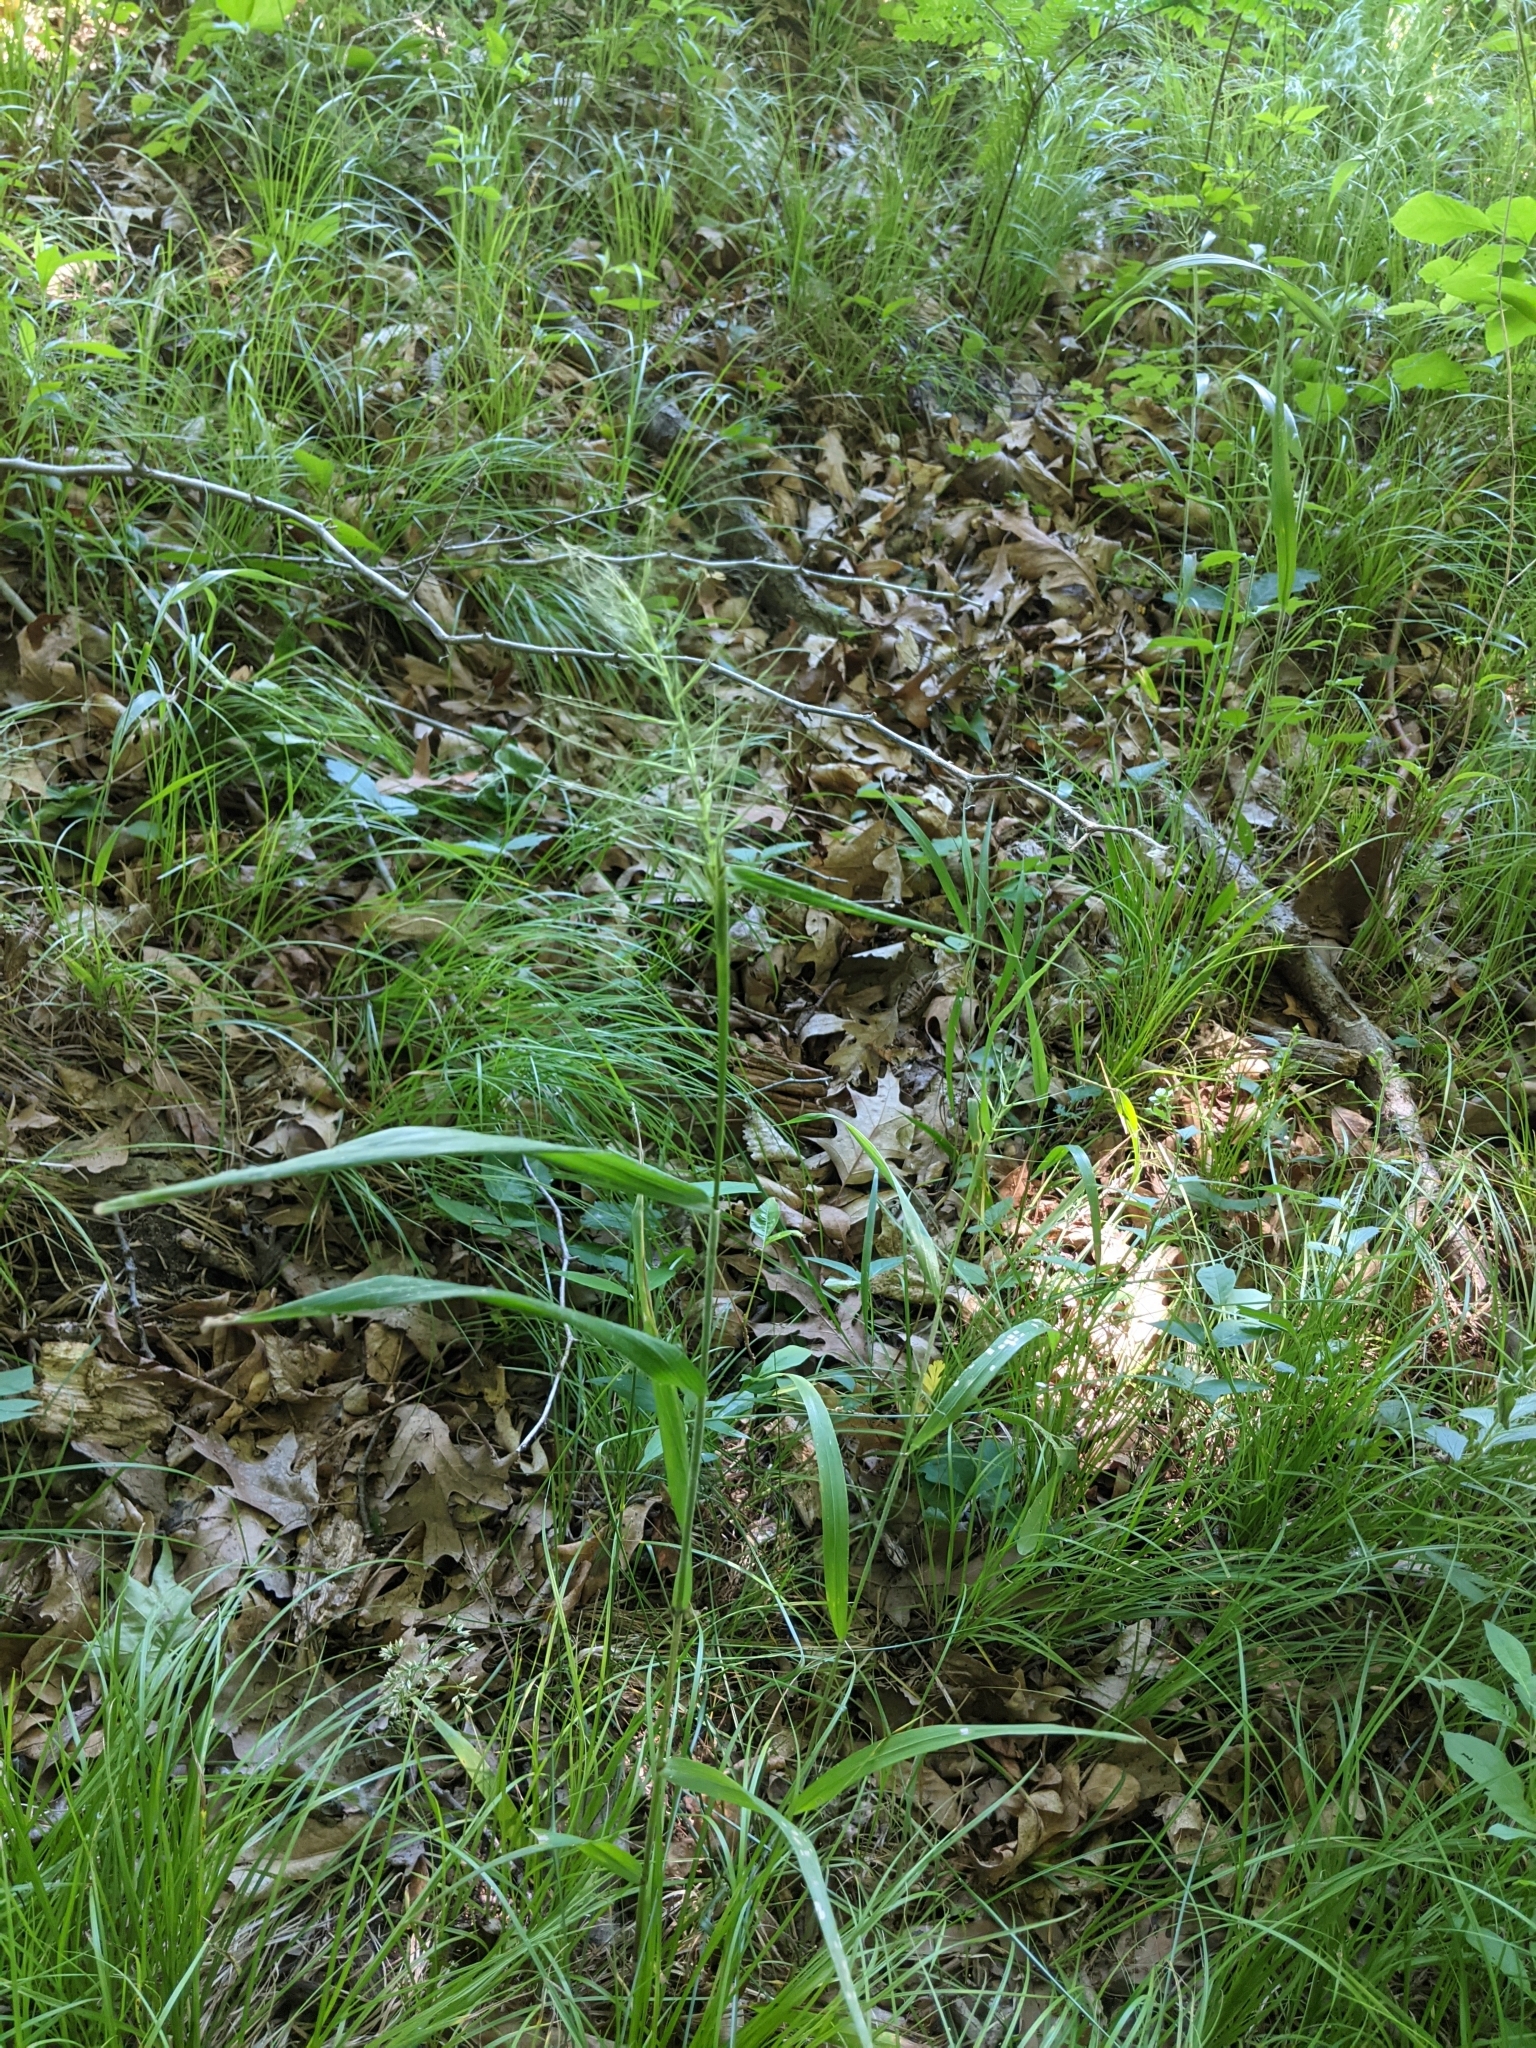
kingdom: Plantae
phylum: Tracheophyta
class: Liliopsida
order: Poales
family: Poaceae
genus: Elymus
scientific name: Elymus hystrix
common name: Bottlebrush grass
